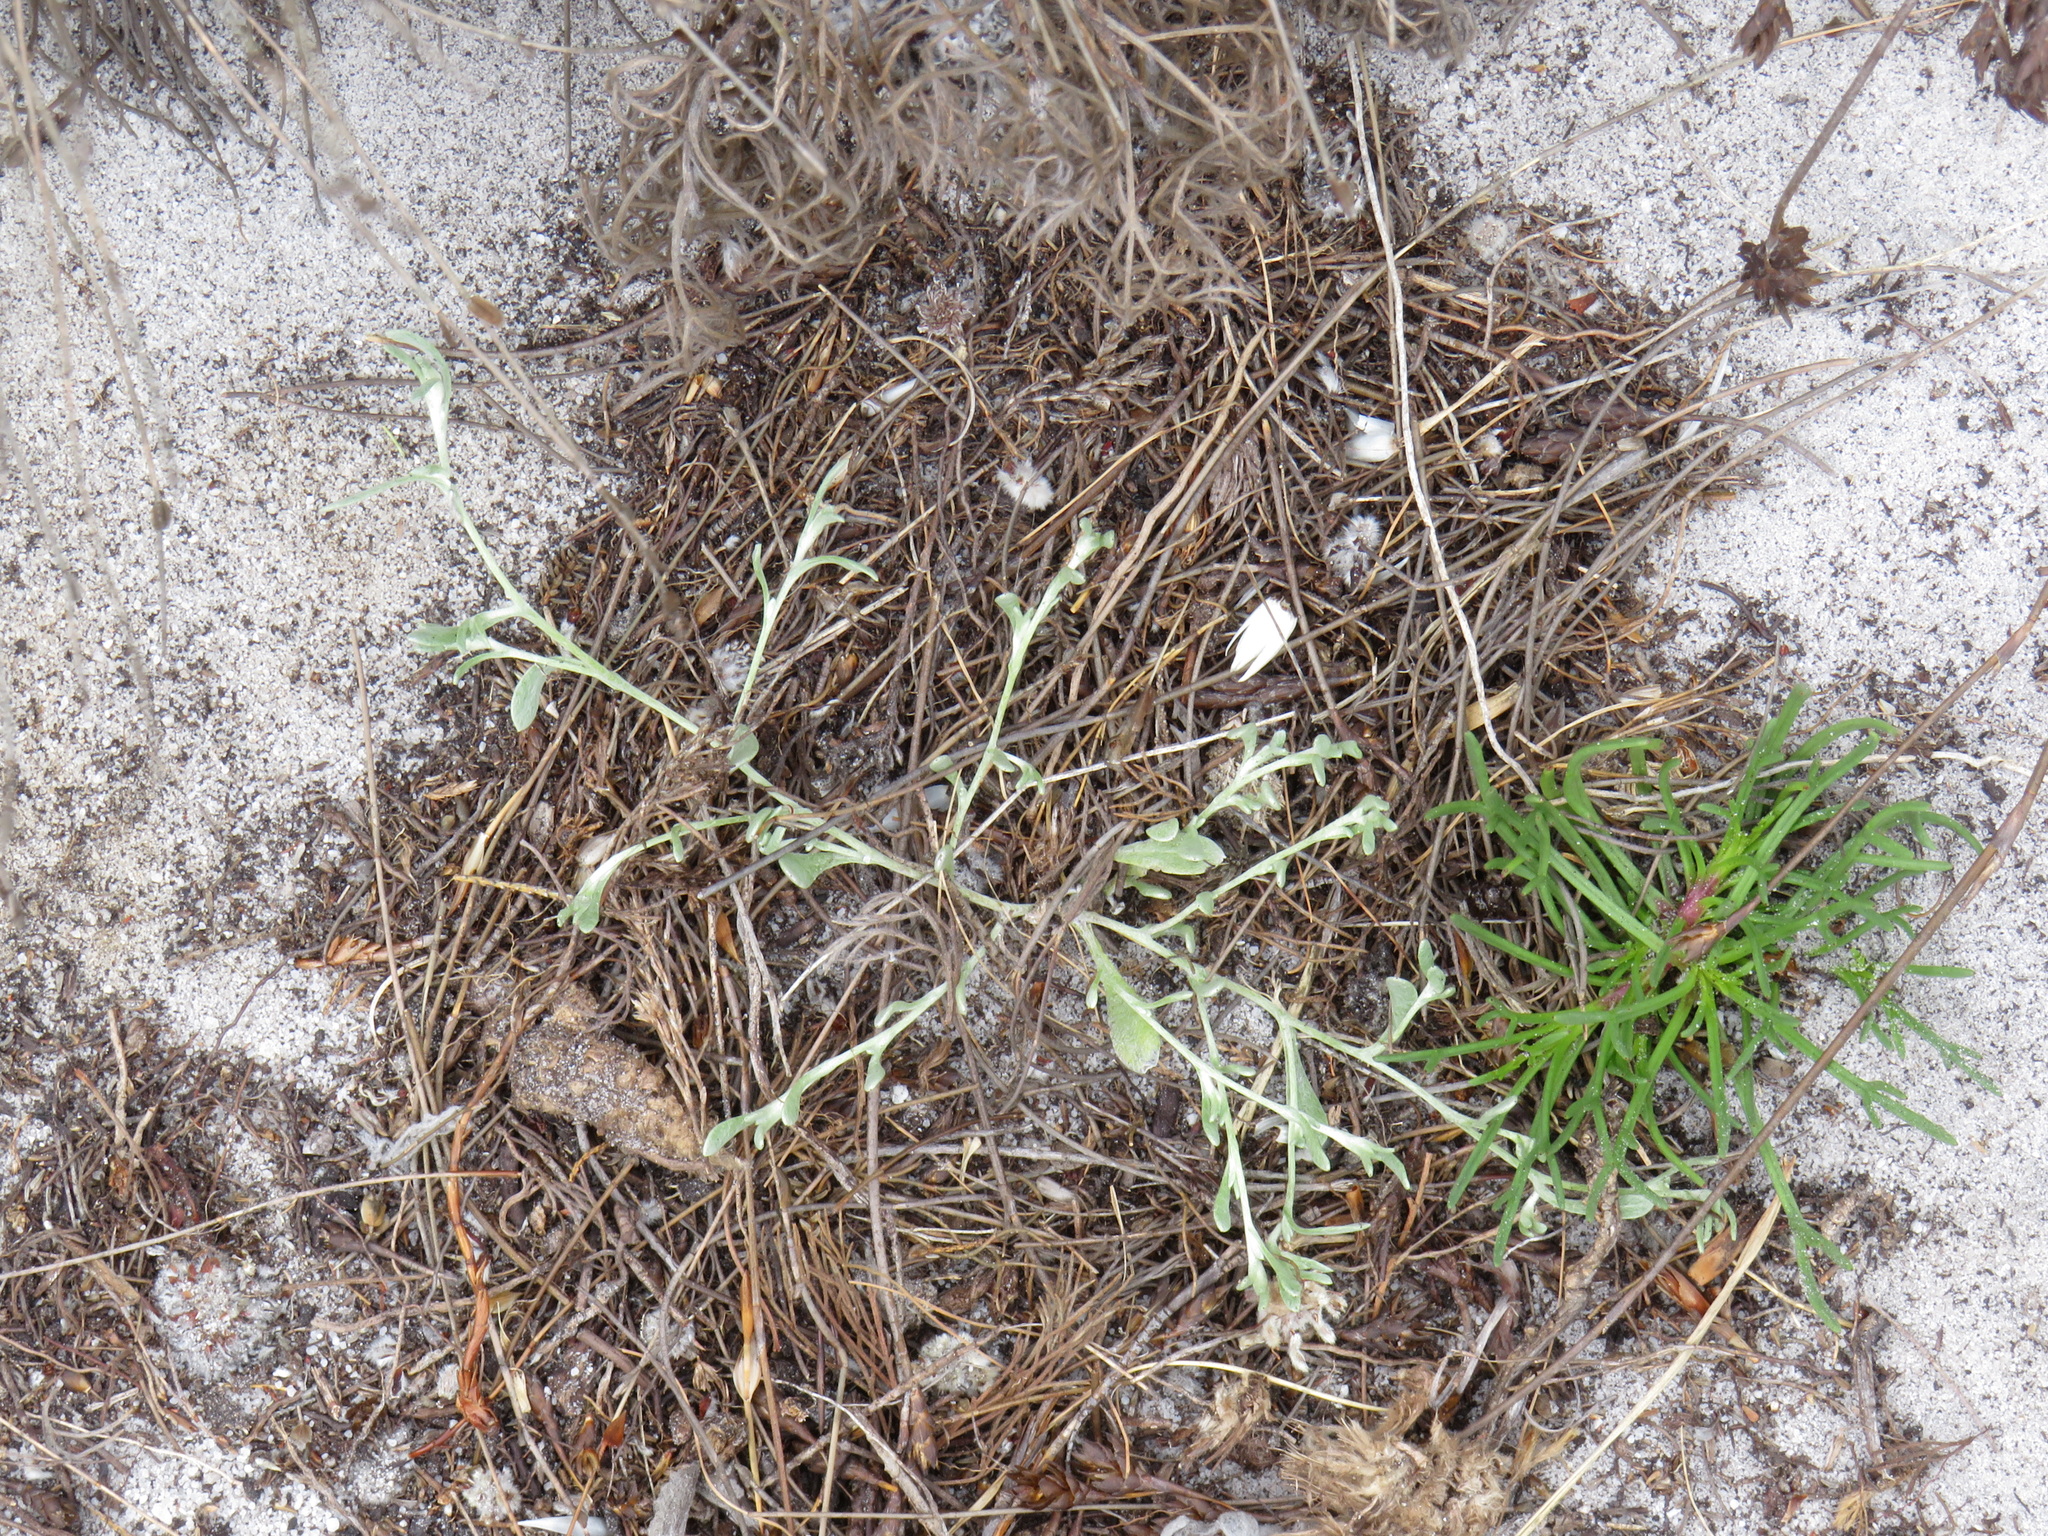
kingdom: Plantae
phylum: Tracheophyta
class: Magnoliopsida
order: Asterales
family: Asteraceae
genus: Helichrysum
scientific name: Helichrysum indicum
